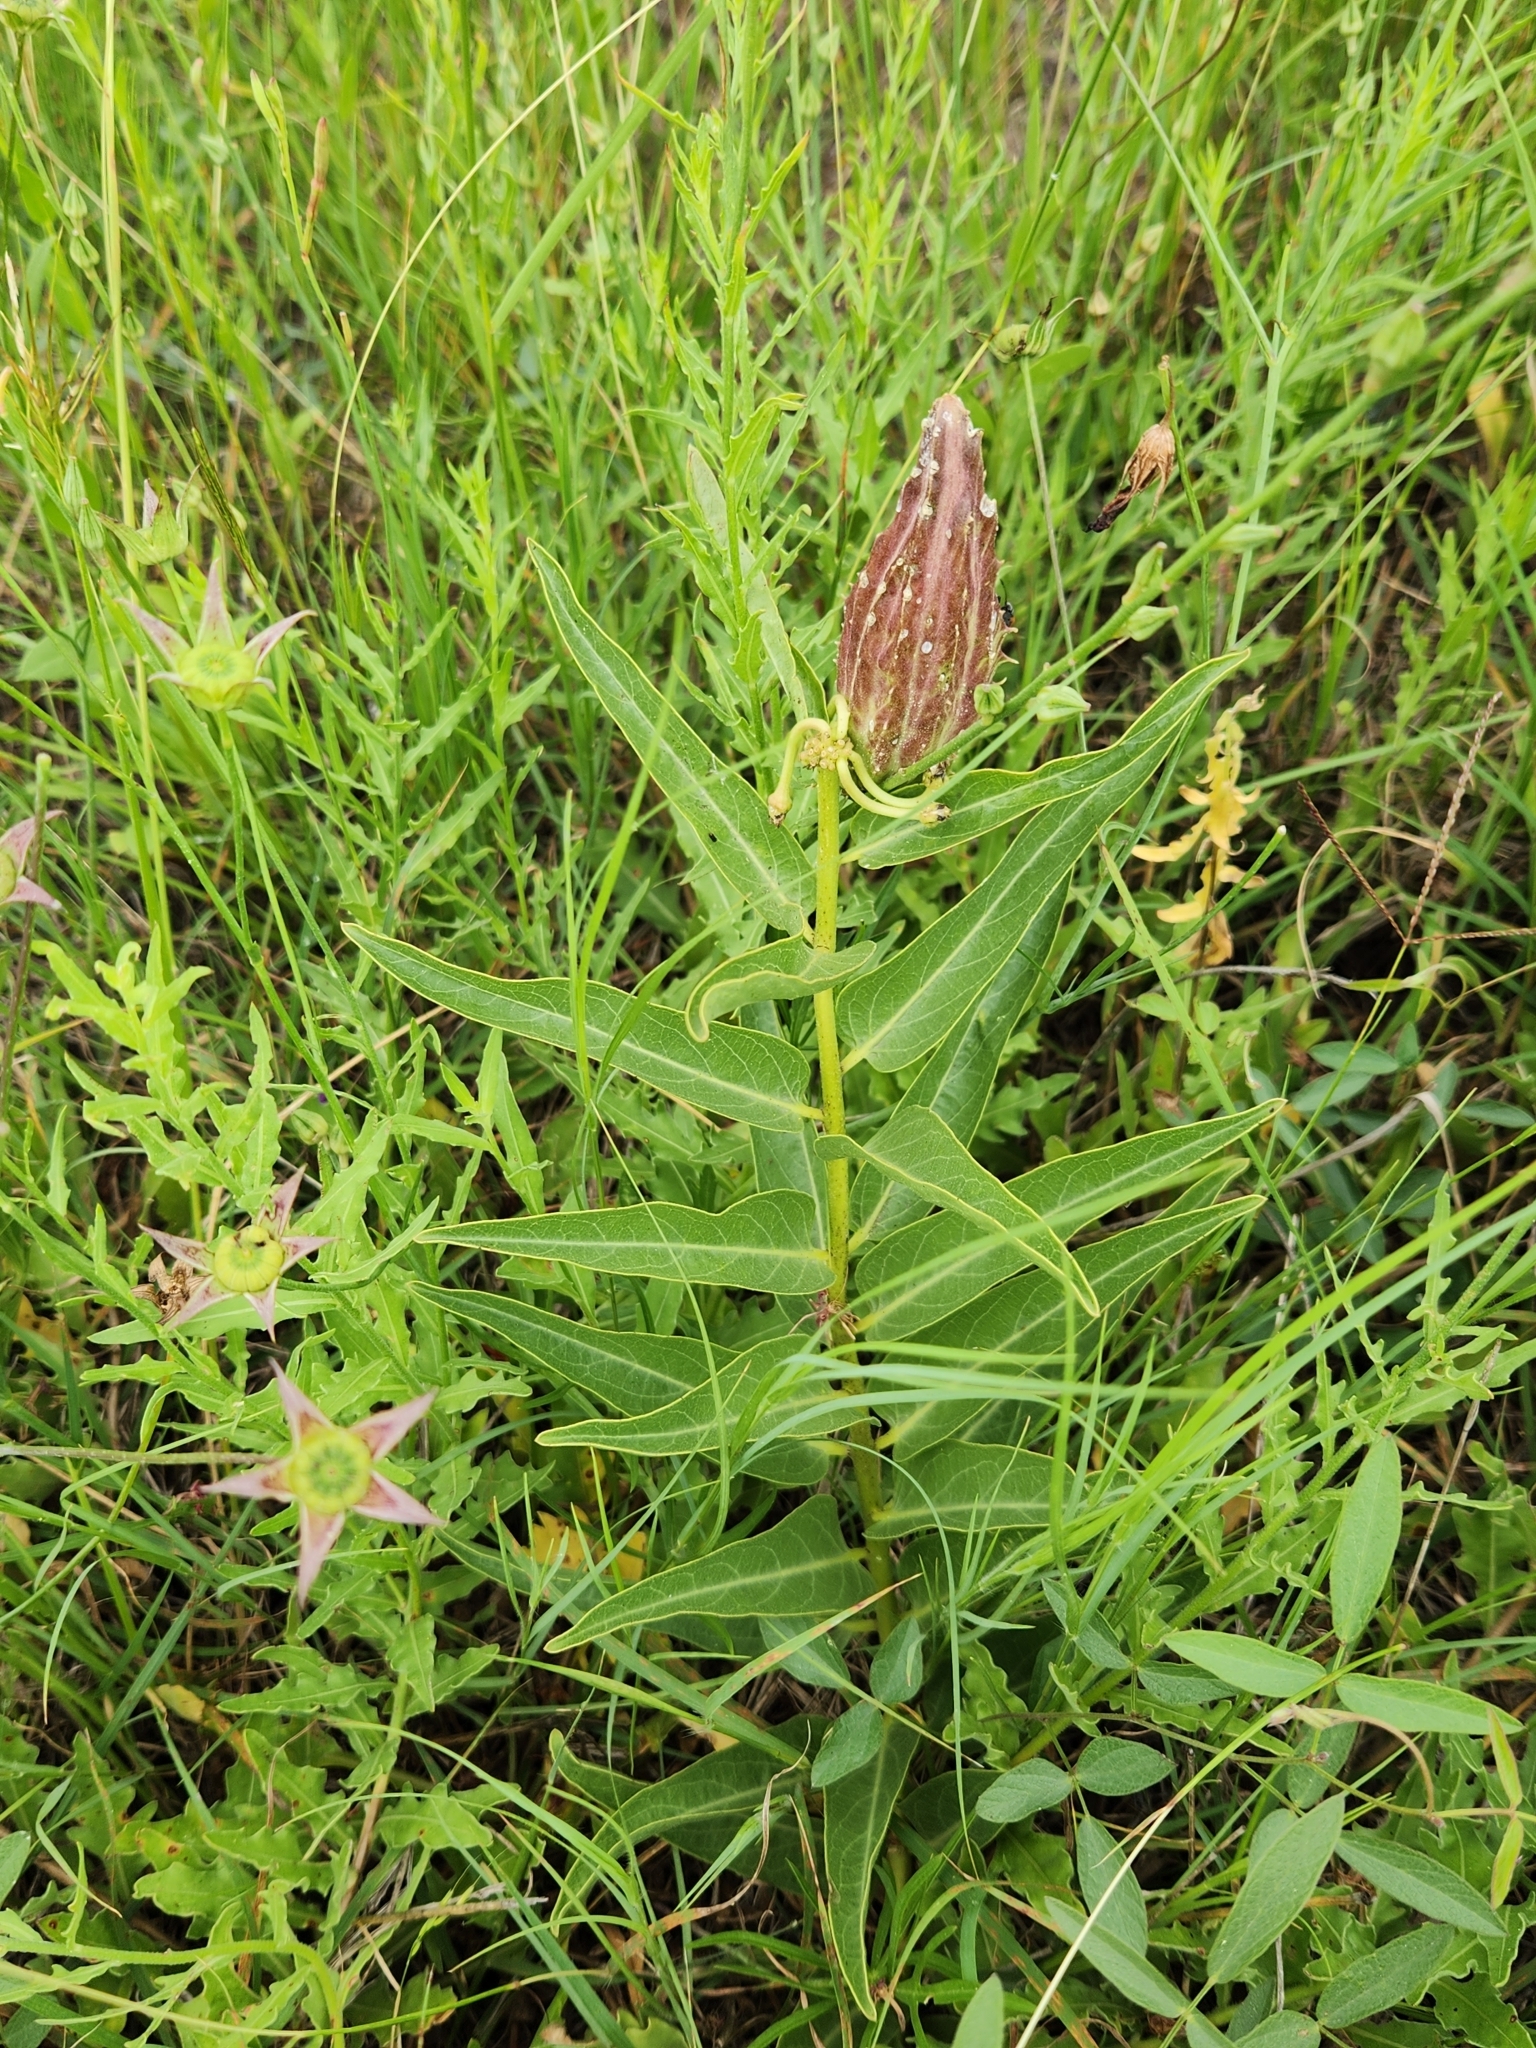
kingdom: Plantae
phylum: Tracheophyta
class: Magnoliopsida
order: Gentianales
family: Apocynaceae
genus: Asclepias
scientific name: Asclepias asperula
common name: Antelope horns
